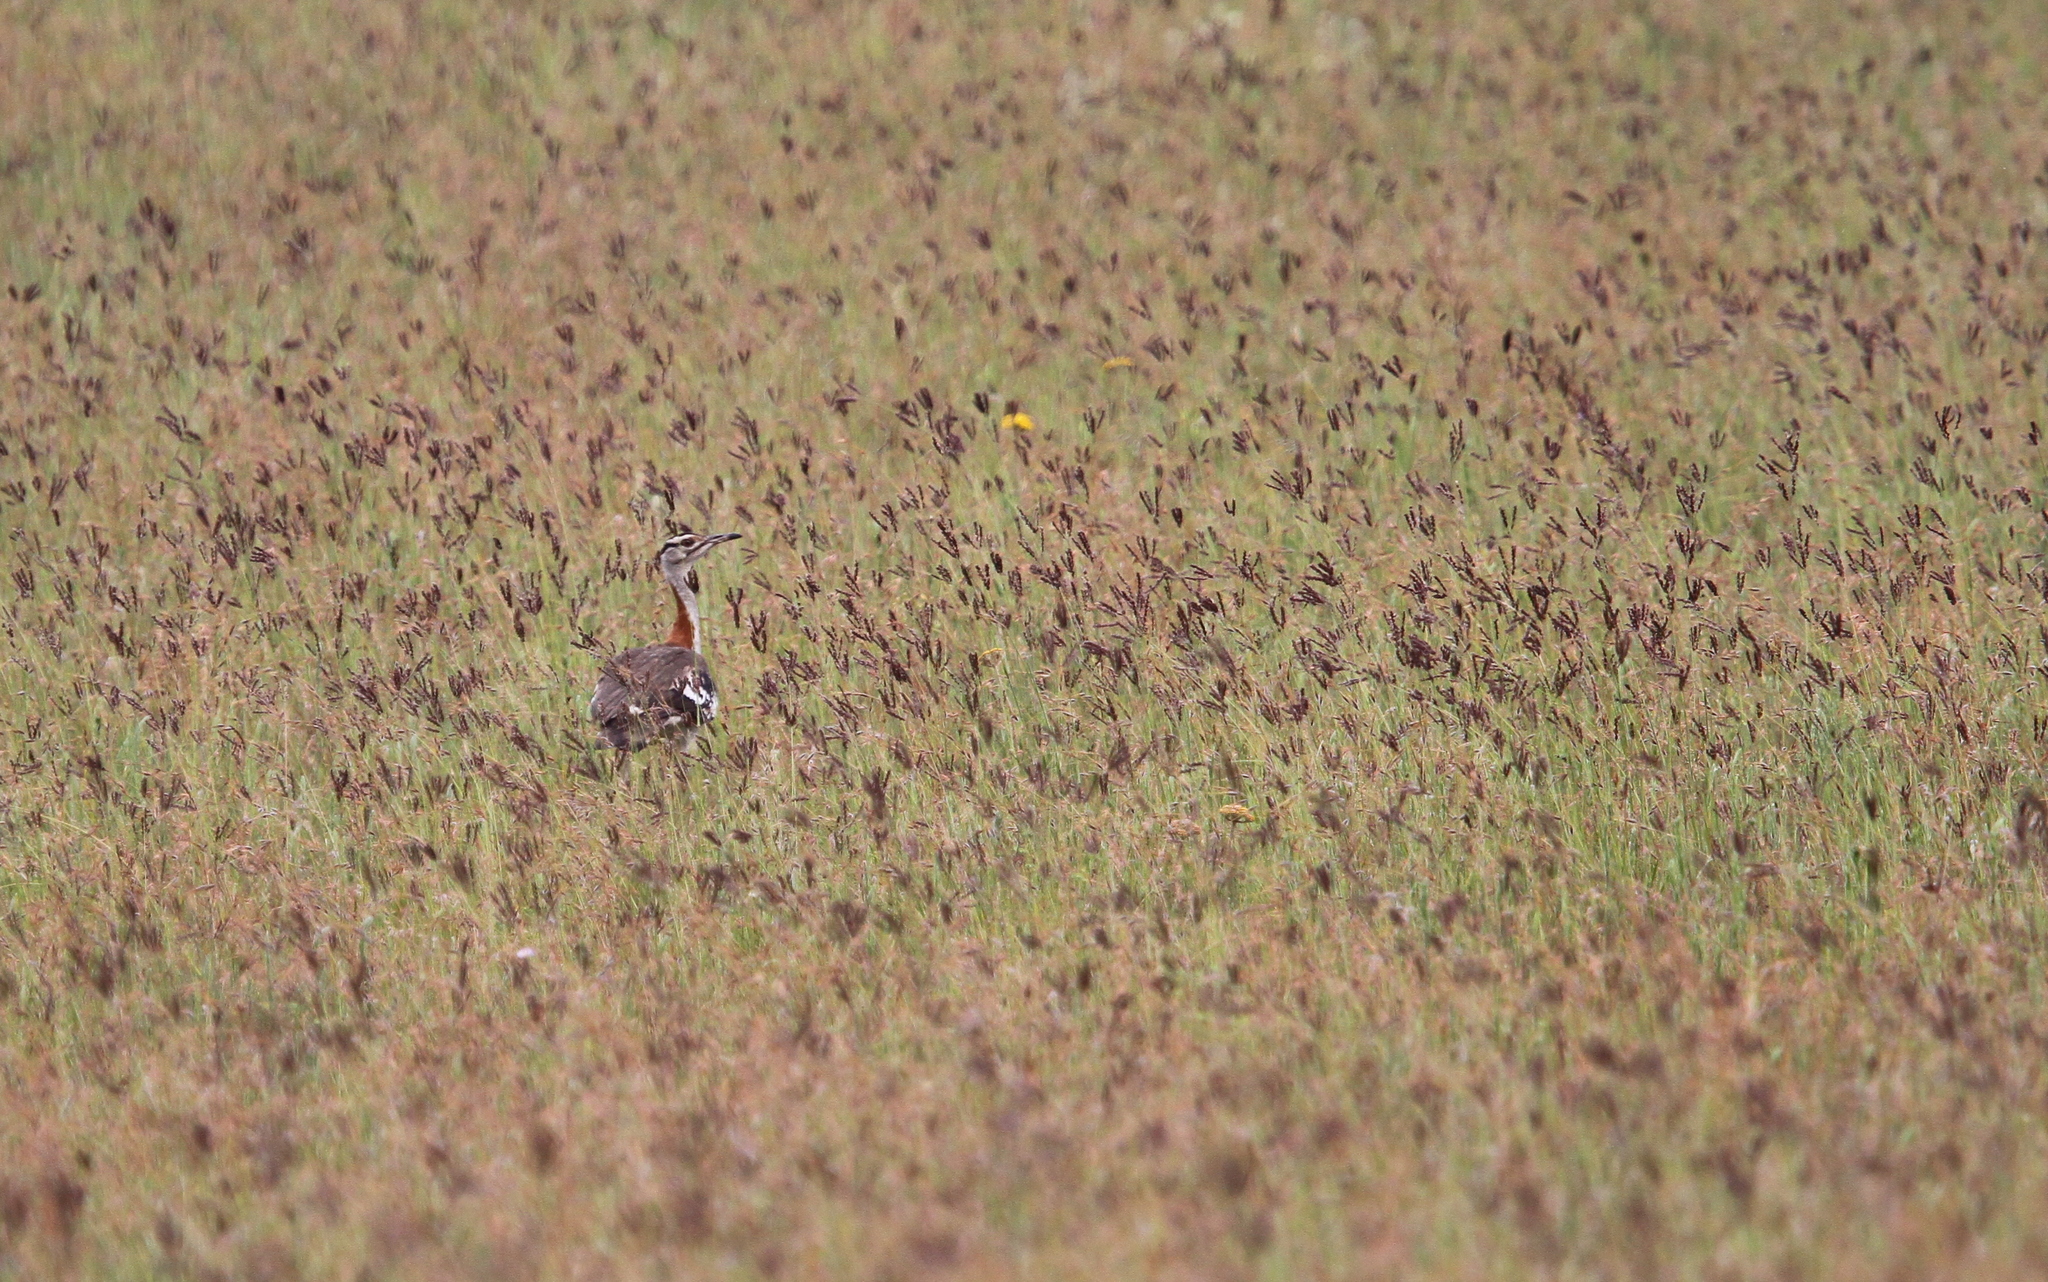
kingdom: Animalia
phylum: Chordata
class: Aves
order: Otidiformes
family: Otididae
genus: Neotis
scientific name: Neotis denhami
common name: Denham's bustard
